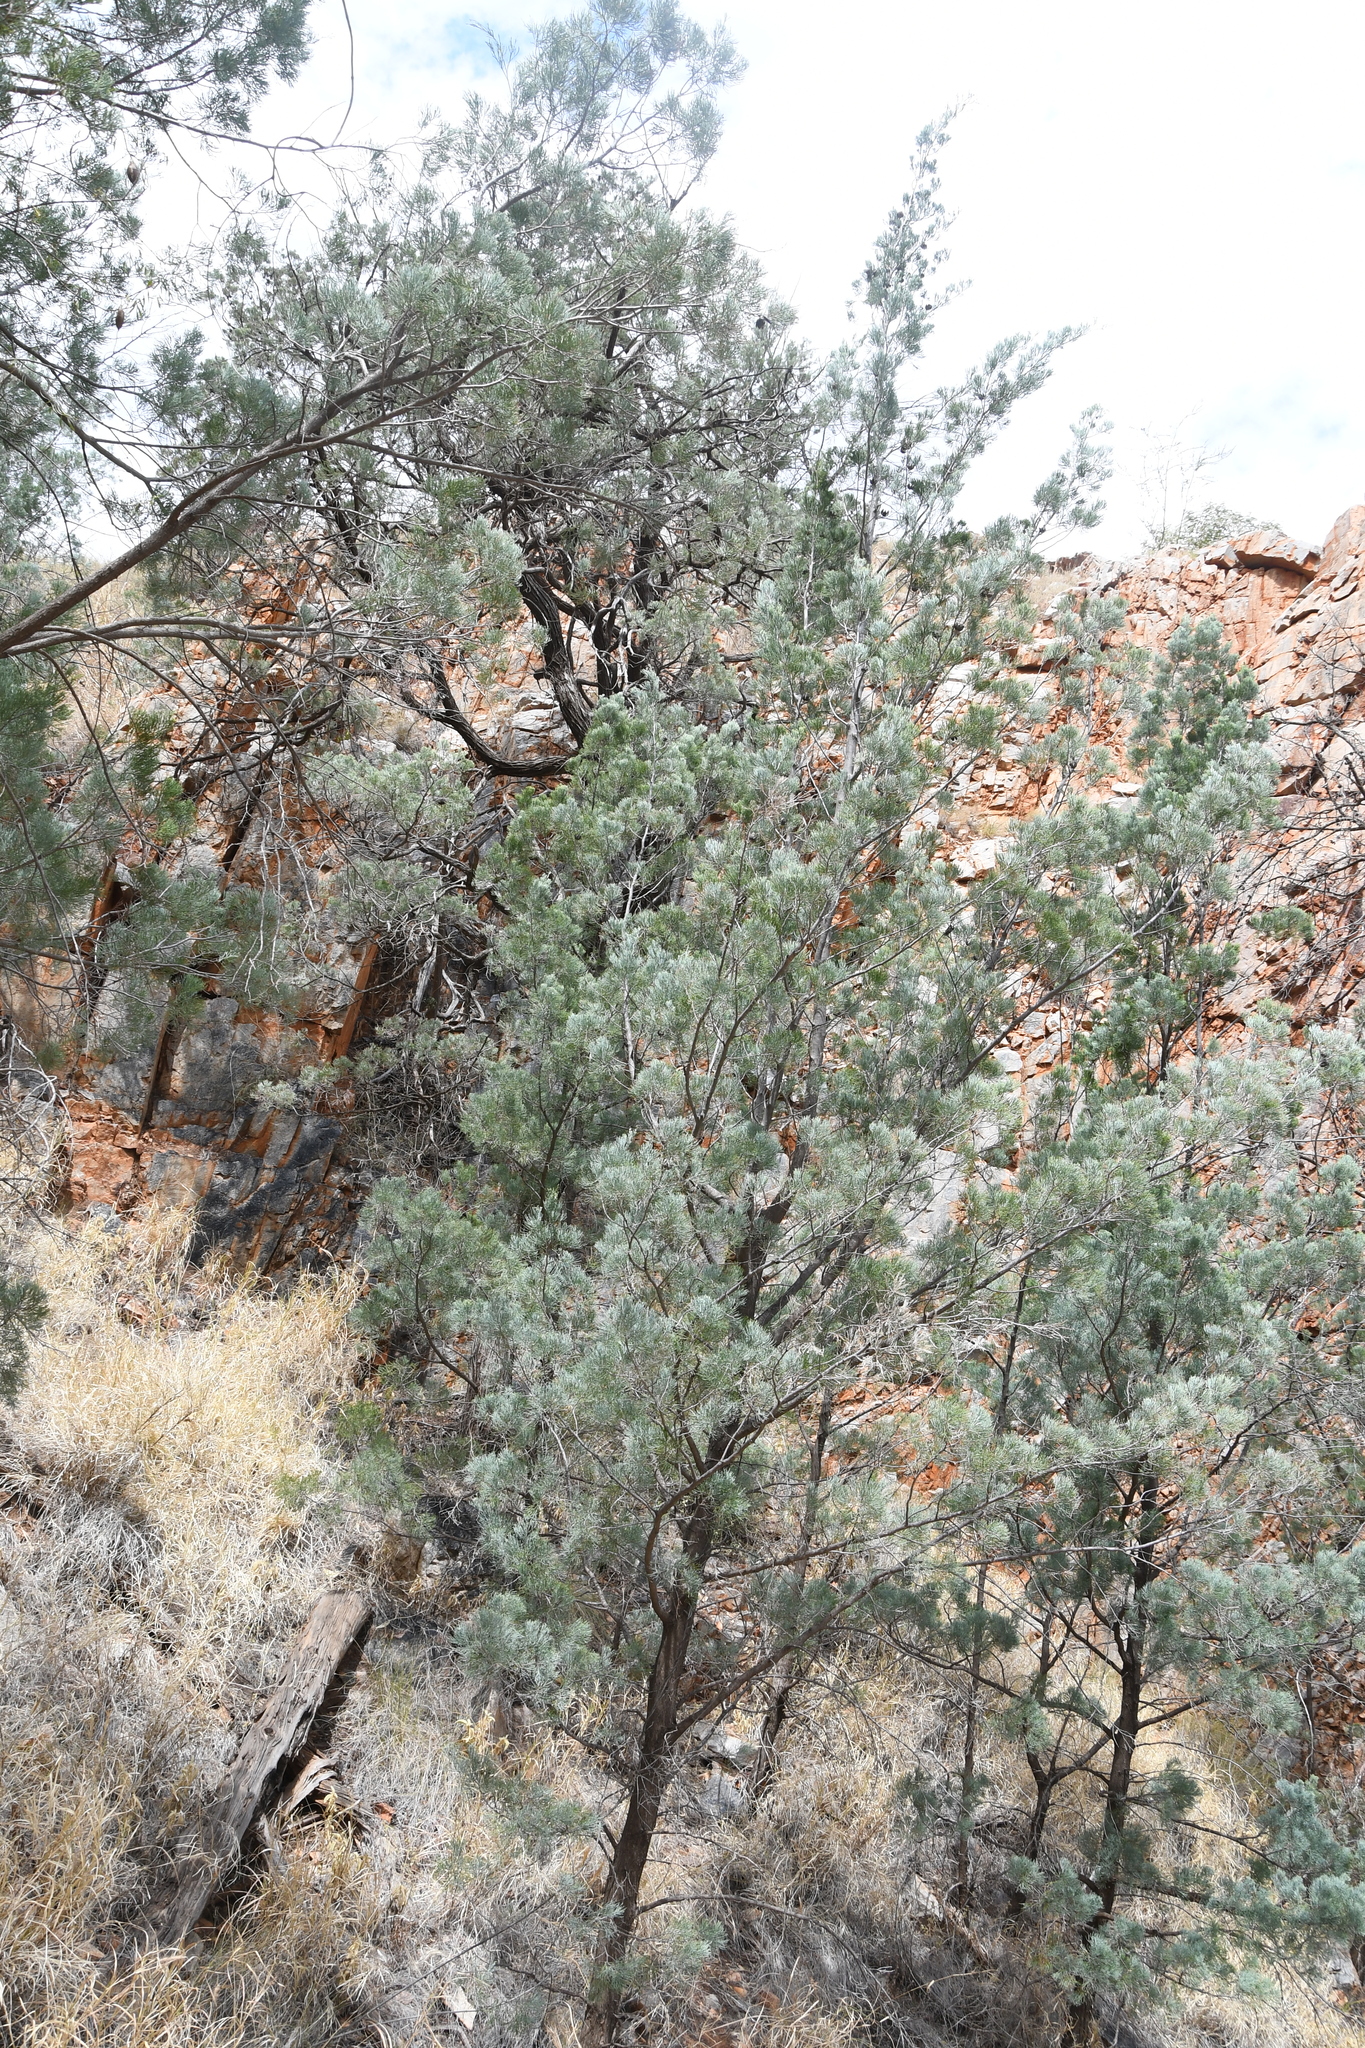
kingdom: Plantae
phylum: Tracheophyta
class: Pinopsida
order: Pinales
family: Cupressaceae
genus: Callitris
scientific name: Callitris columellaris
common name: White cypress-pine
